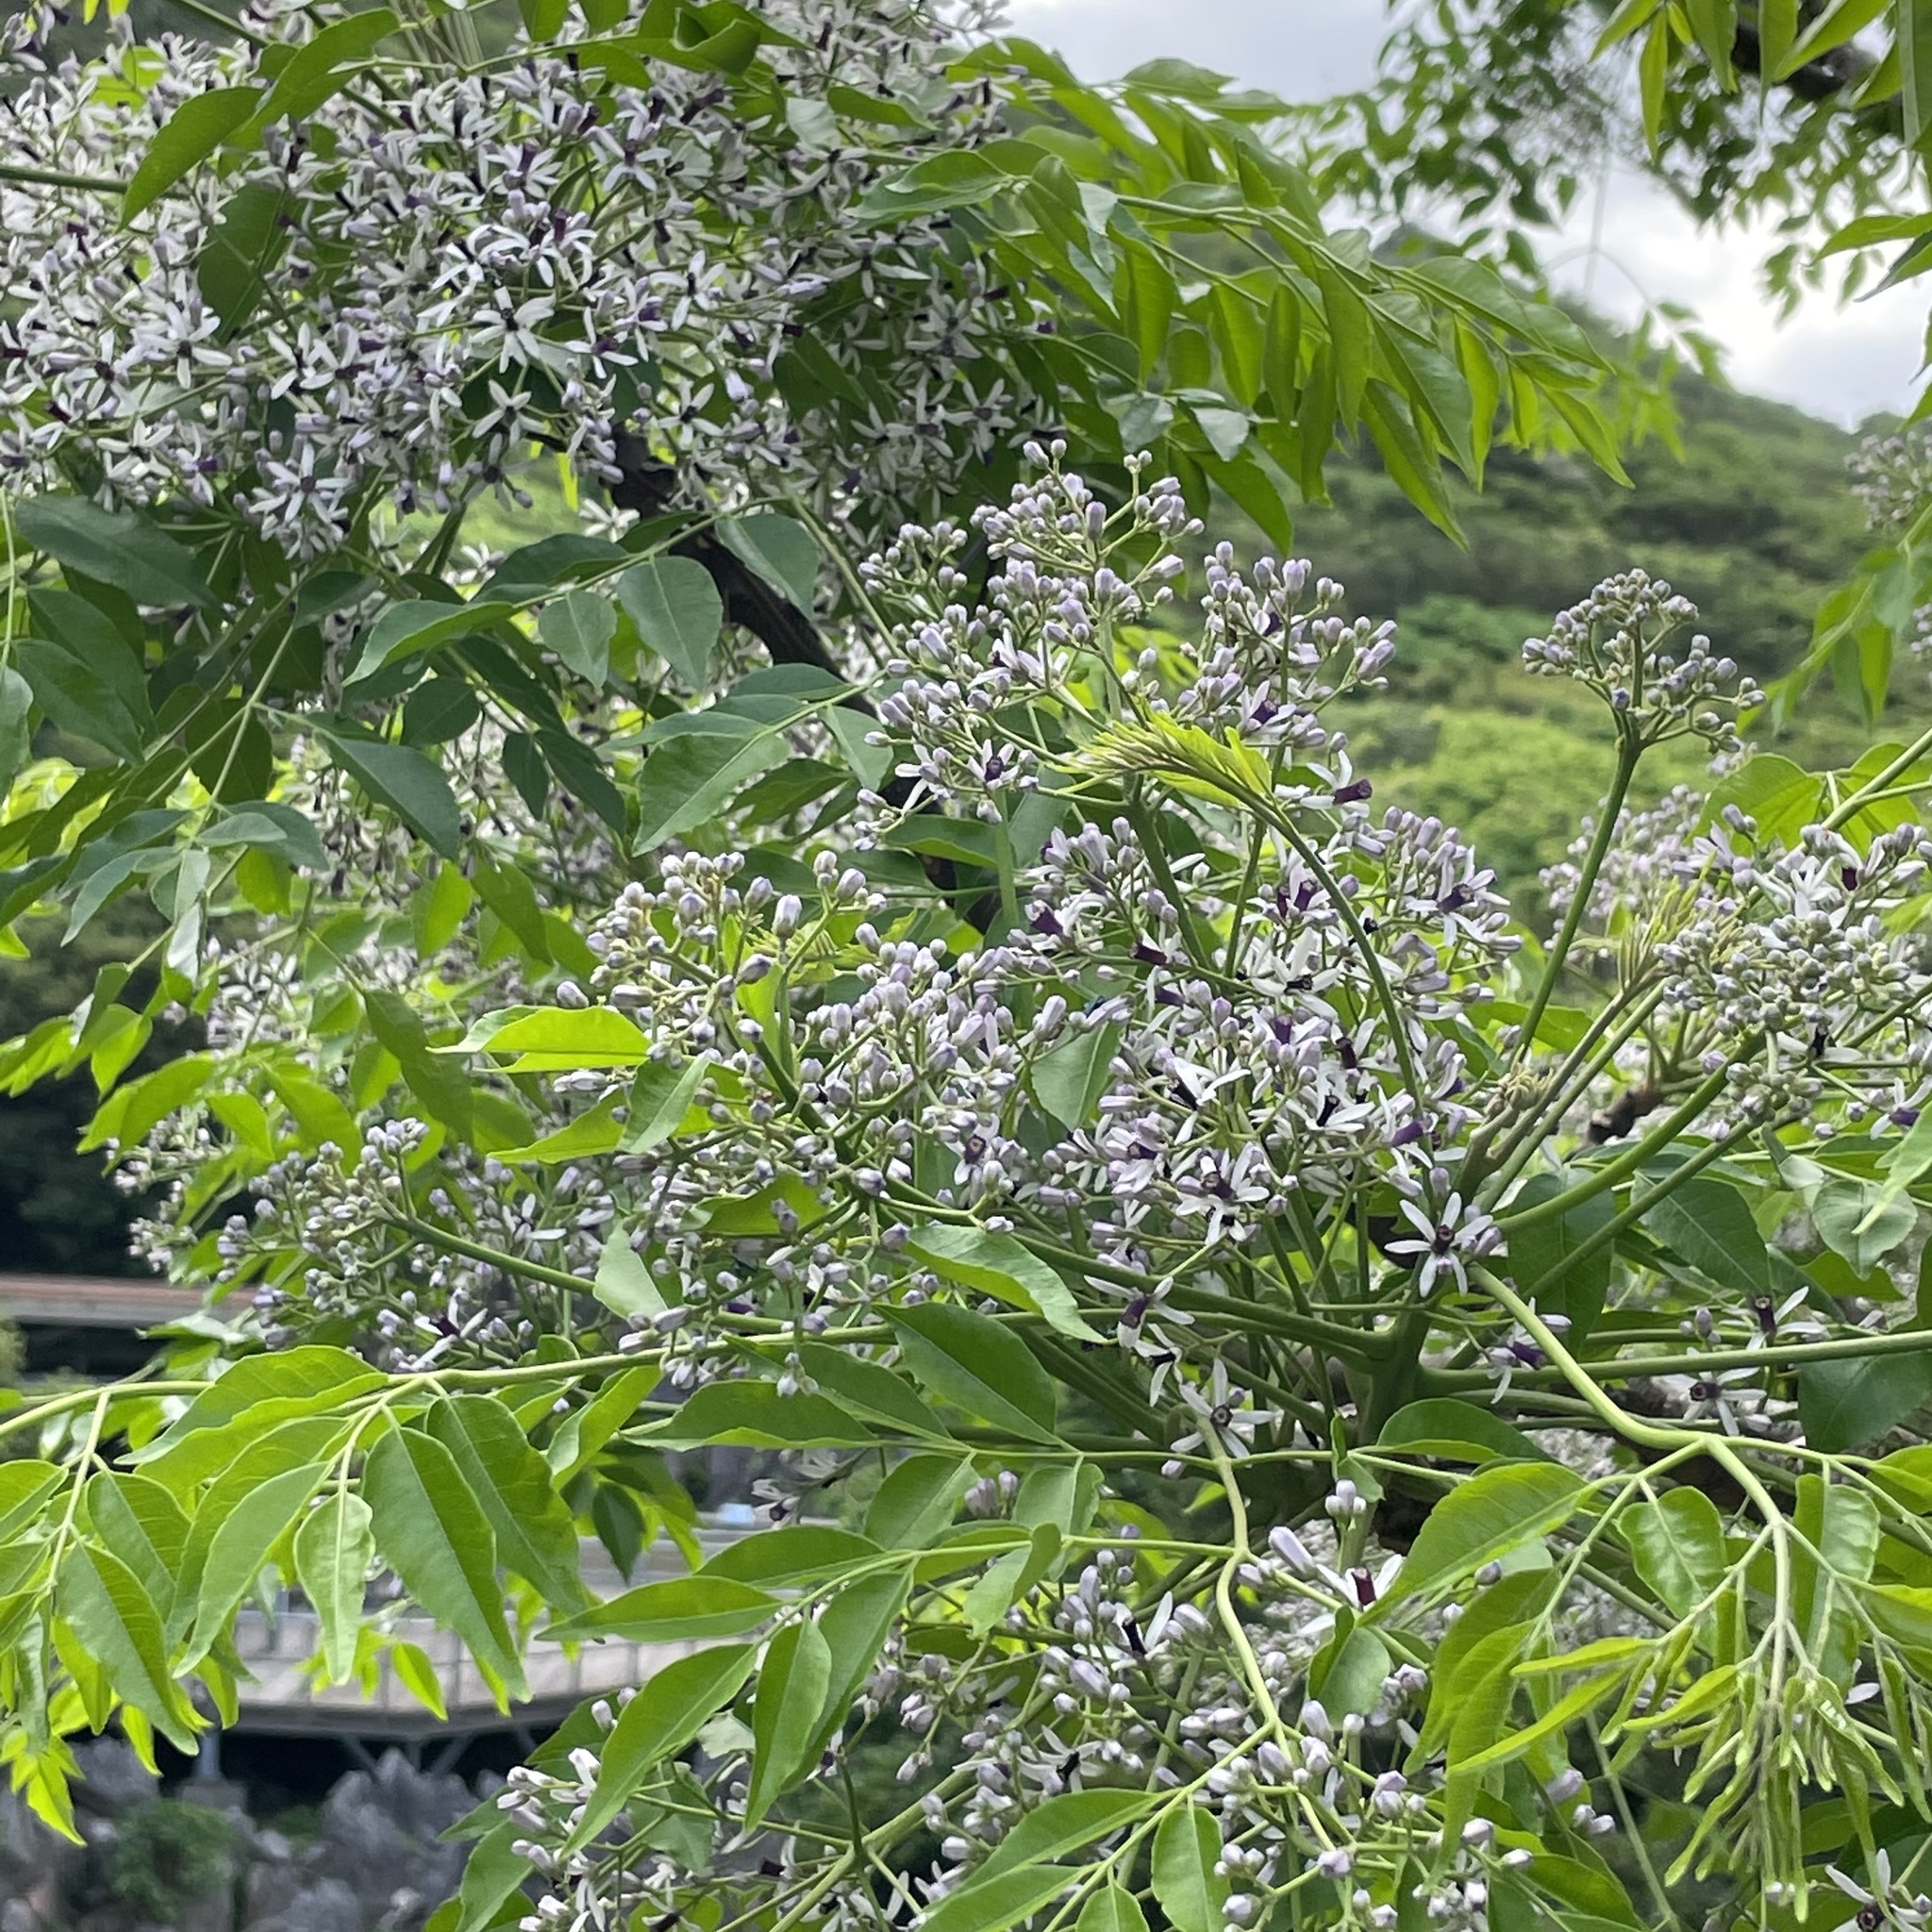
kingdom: Plantae
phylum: Tracheophyta
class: Magnoliopsida
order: Sapindales
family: Meliaceae
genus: Melia
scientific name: Melia azedarach
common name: Chinaberrytree
